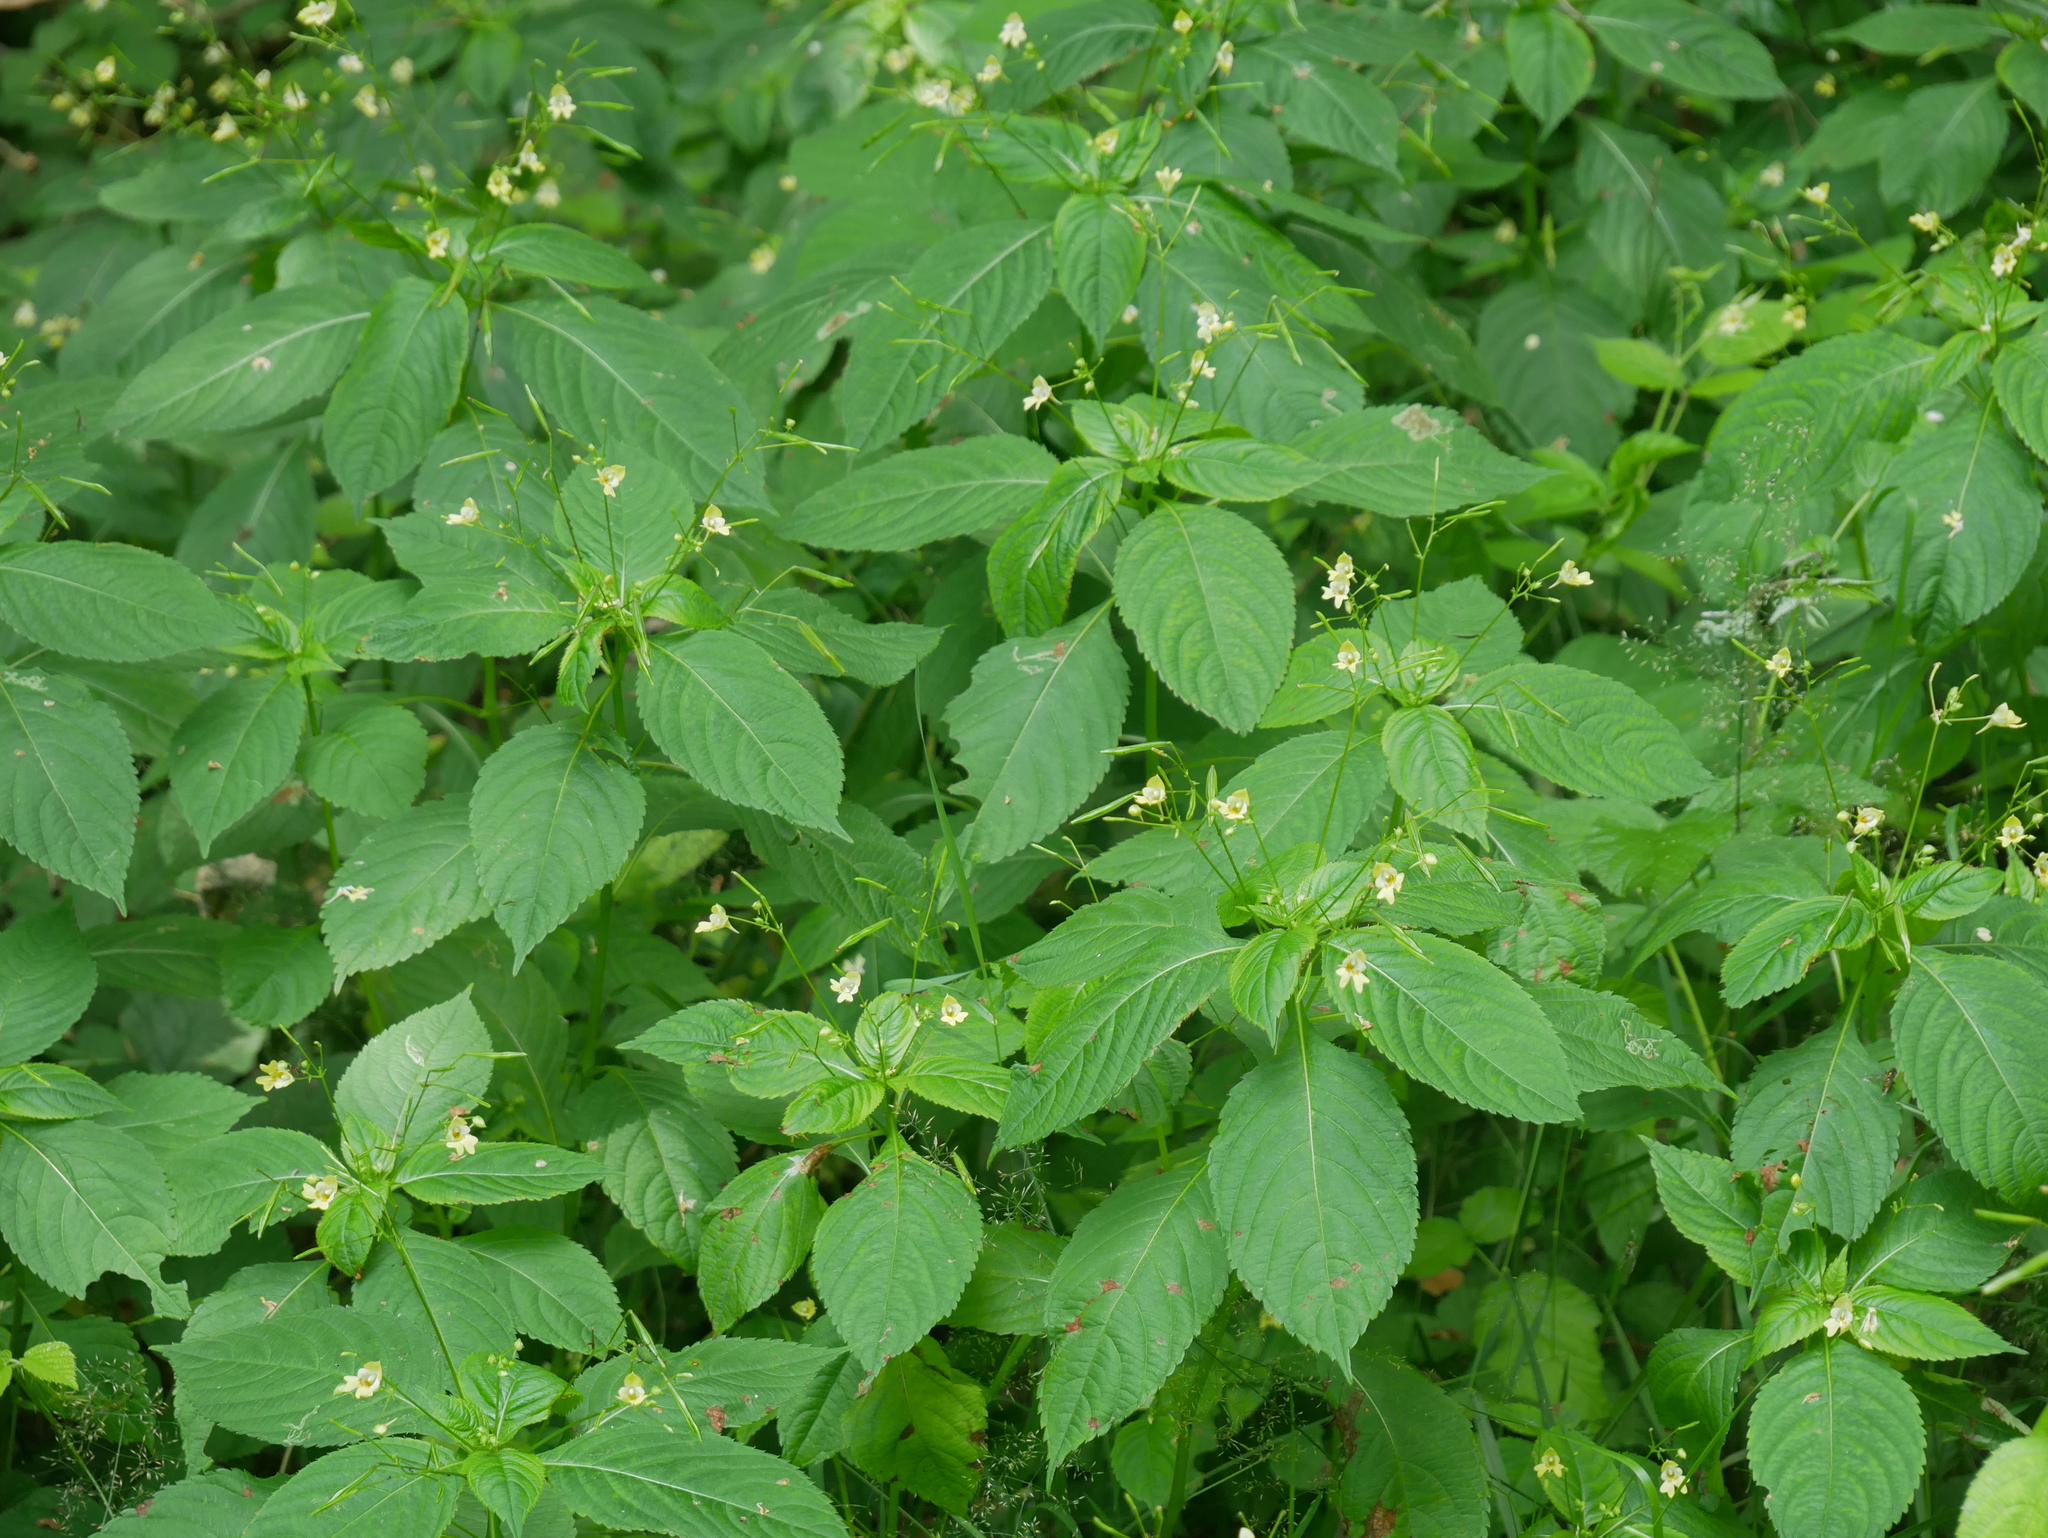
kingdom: Plantae
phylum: Tracheophyta
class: Magnoliopsida
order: Ericales
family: Balsaminaceae
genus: Impatiens
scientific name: Impatiens parviflora
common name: Small balsam
